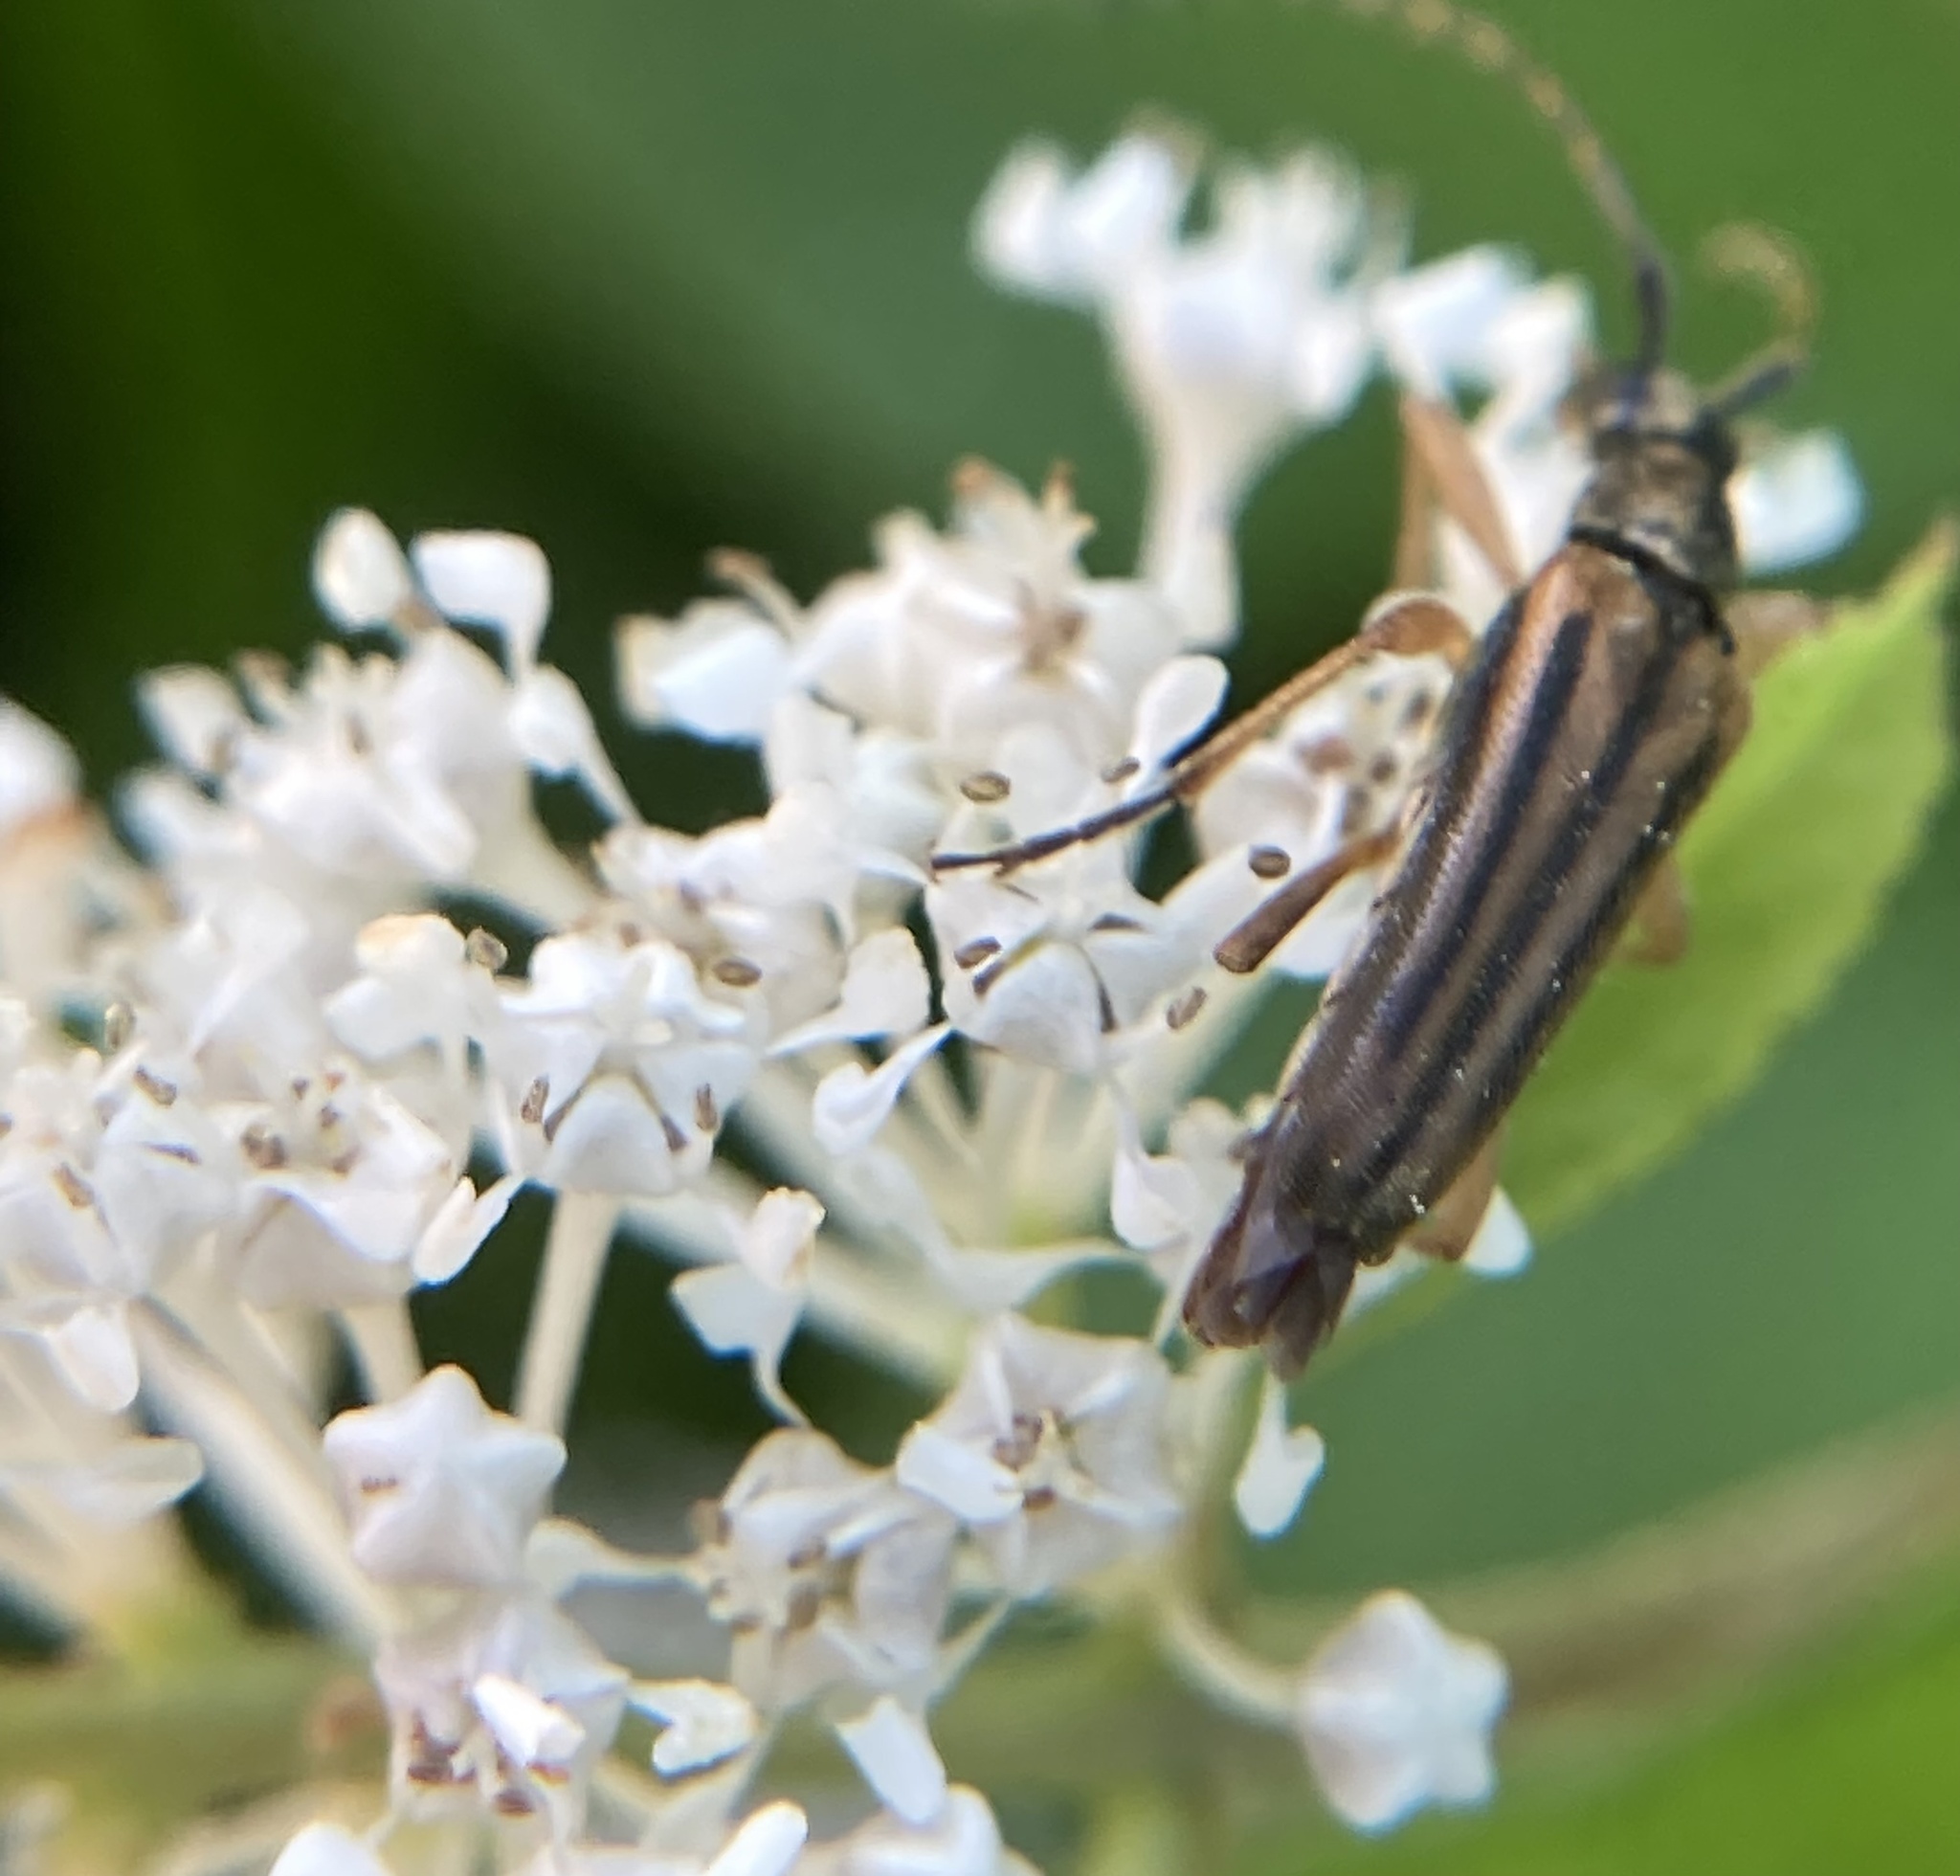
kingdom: Animalia
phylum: Arthropoda
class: Insecta
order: Coleoptera
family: Cerambycidae
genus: Analeptura
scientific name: Analeptura lineola
